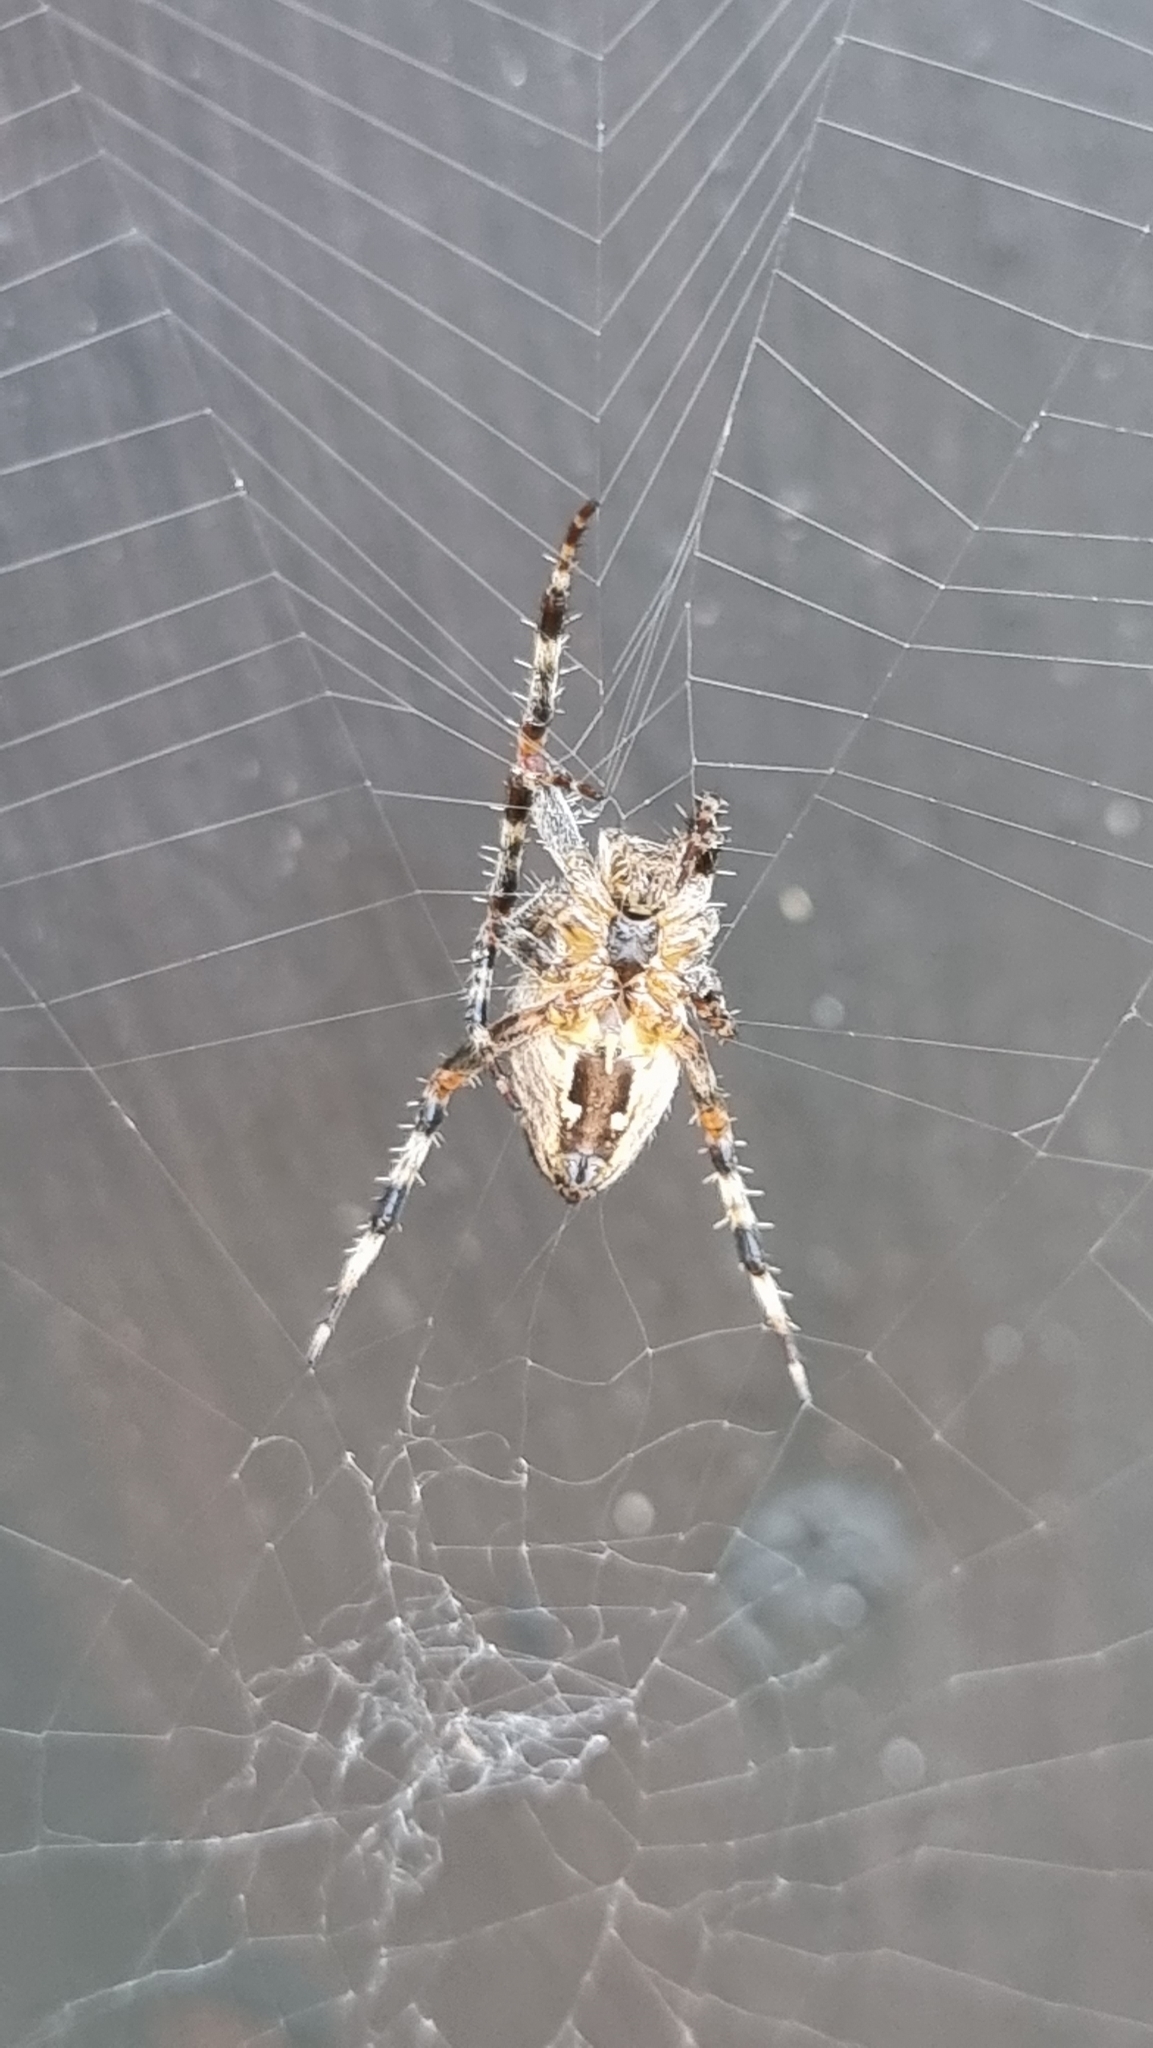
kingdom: Animalia
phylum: Arthropoda
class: Arachnida
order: Araneae
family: Araneidae
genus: Araneus
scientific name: Araneus diadematus
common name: Cross orbweaver
